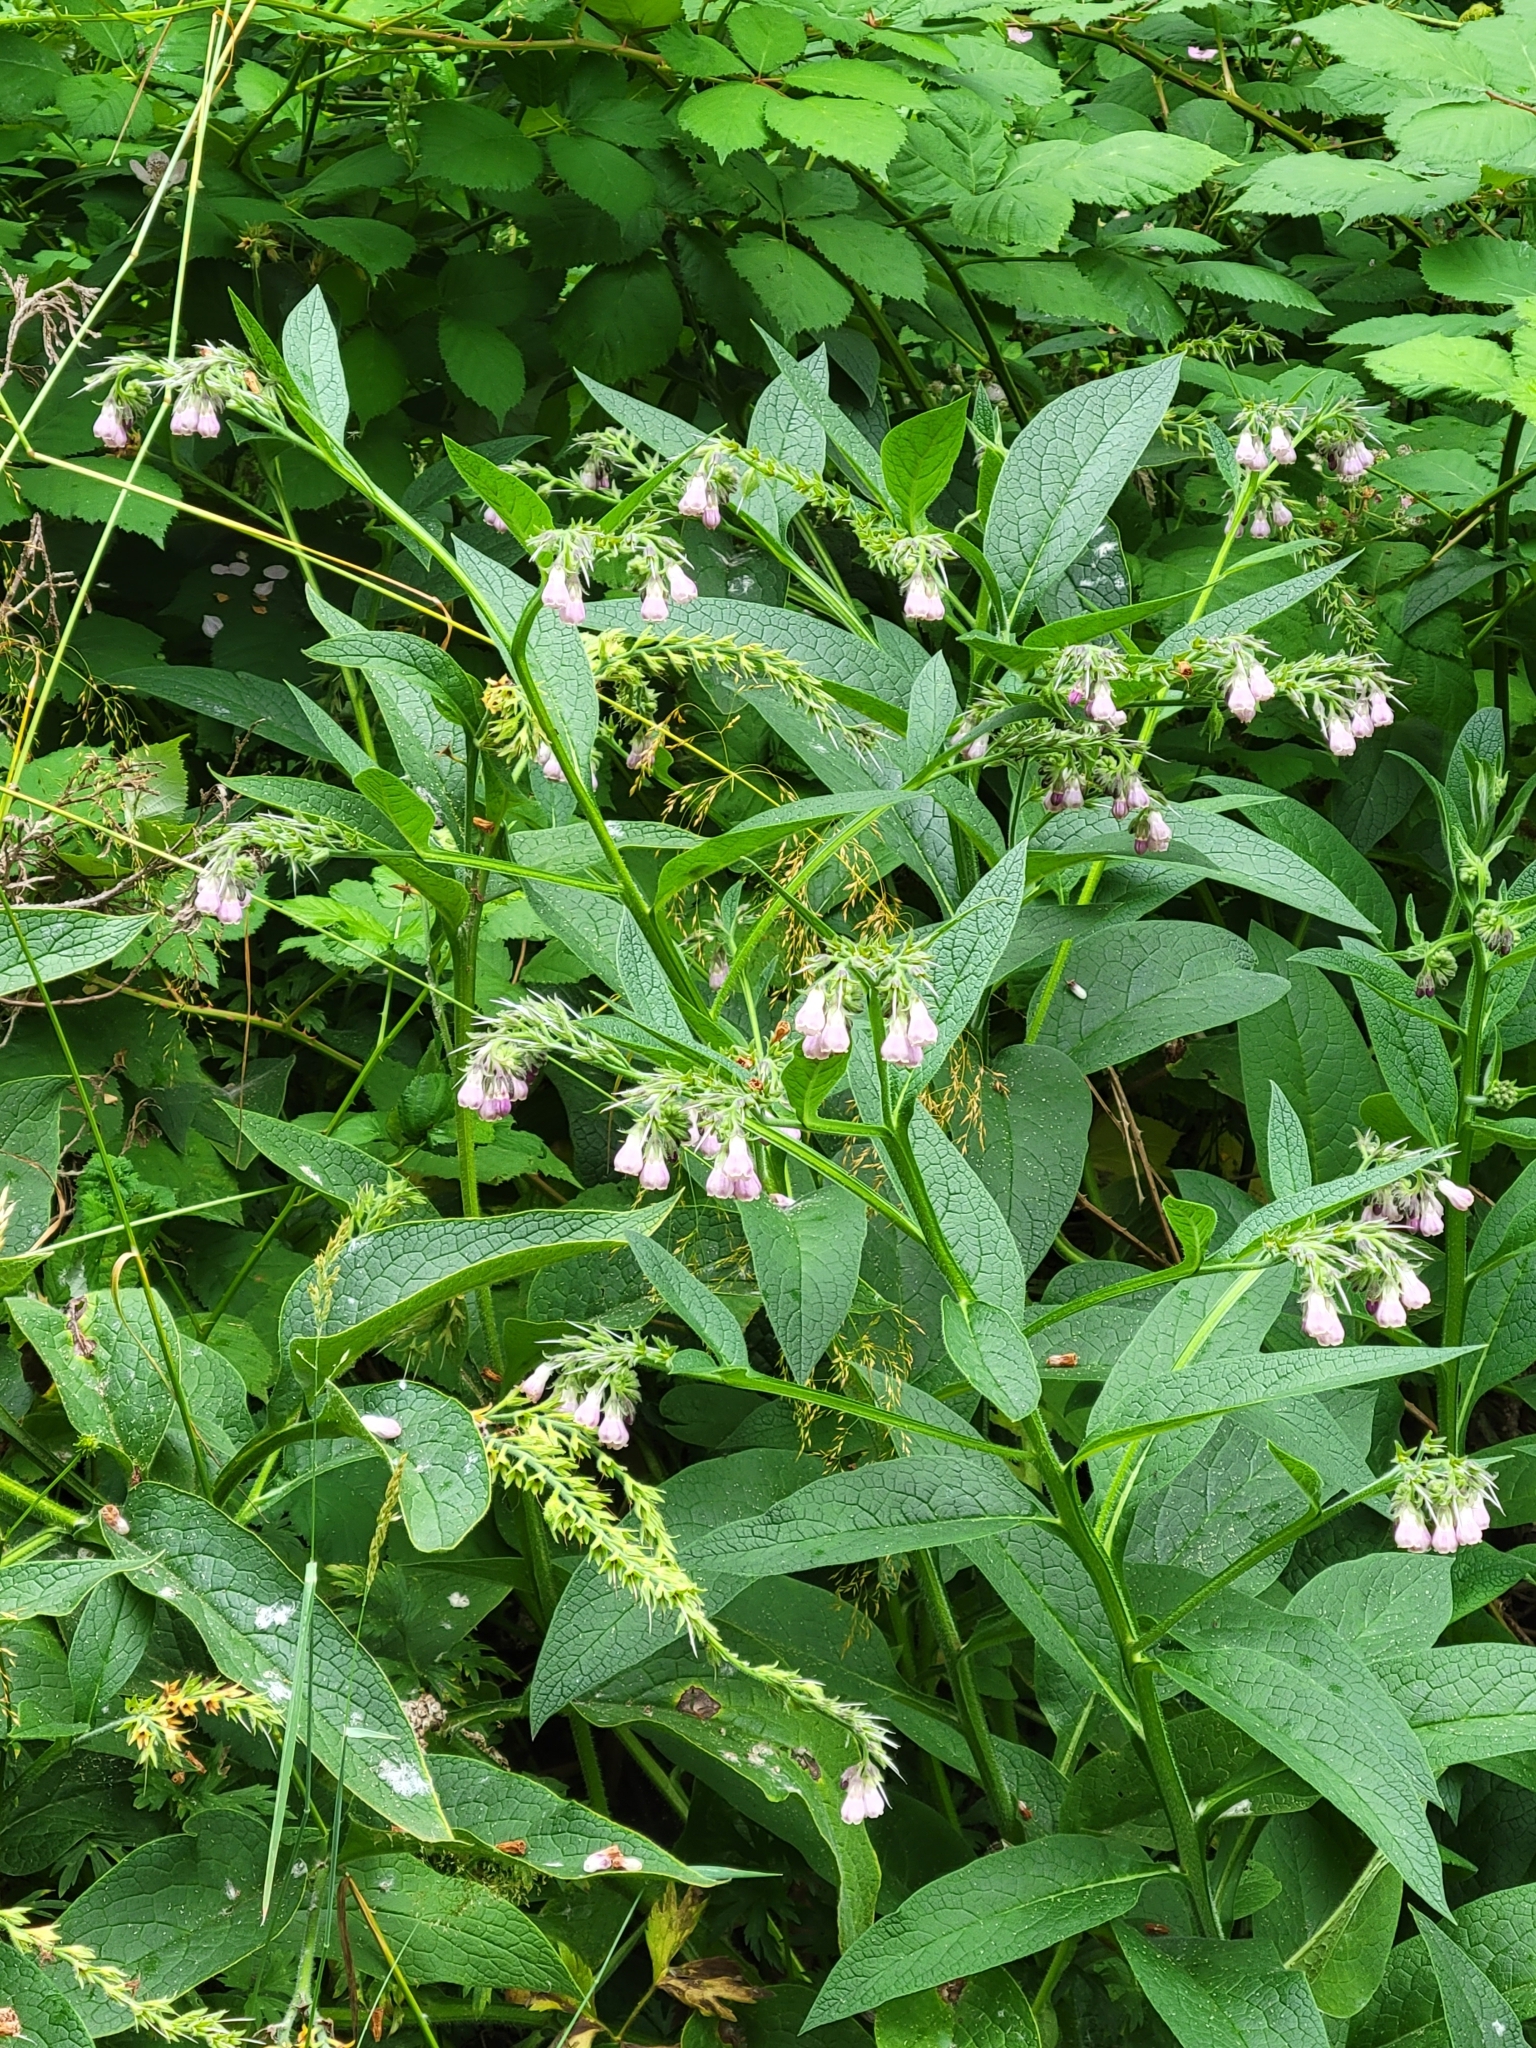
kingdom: Plantae
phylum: Tracheophyta
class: Magnoliopsida
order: Boraginales
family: Boraginaceae
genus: Symphytum
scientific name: Symphytum officinale
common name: Common comfrey
